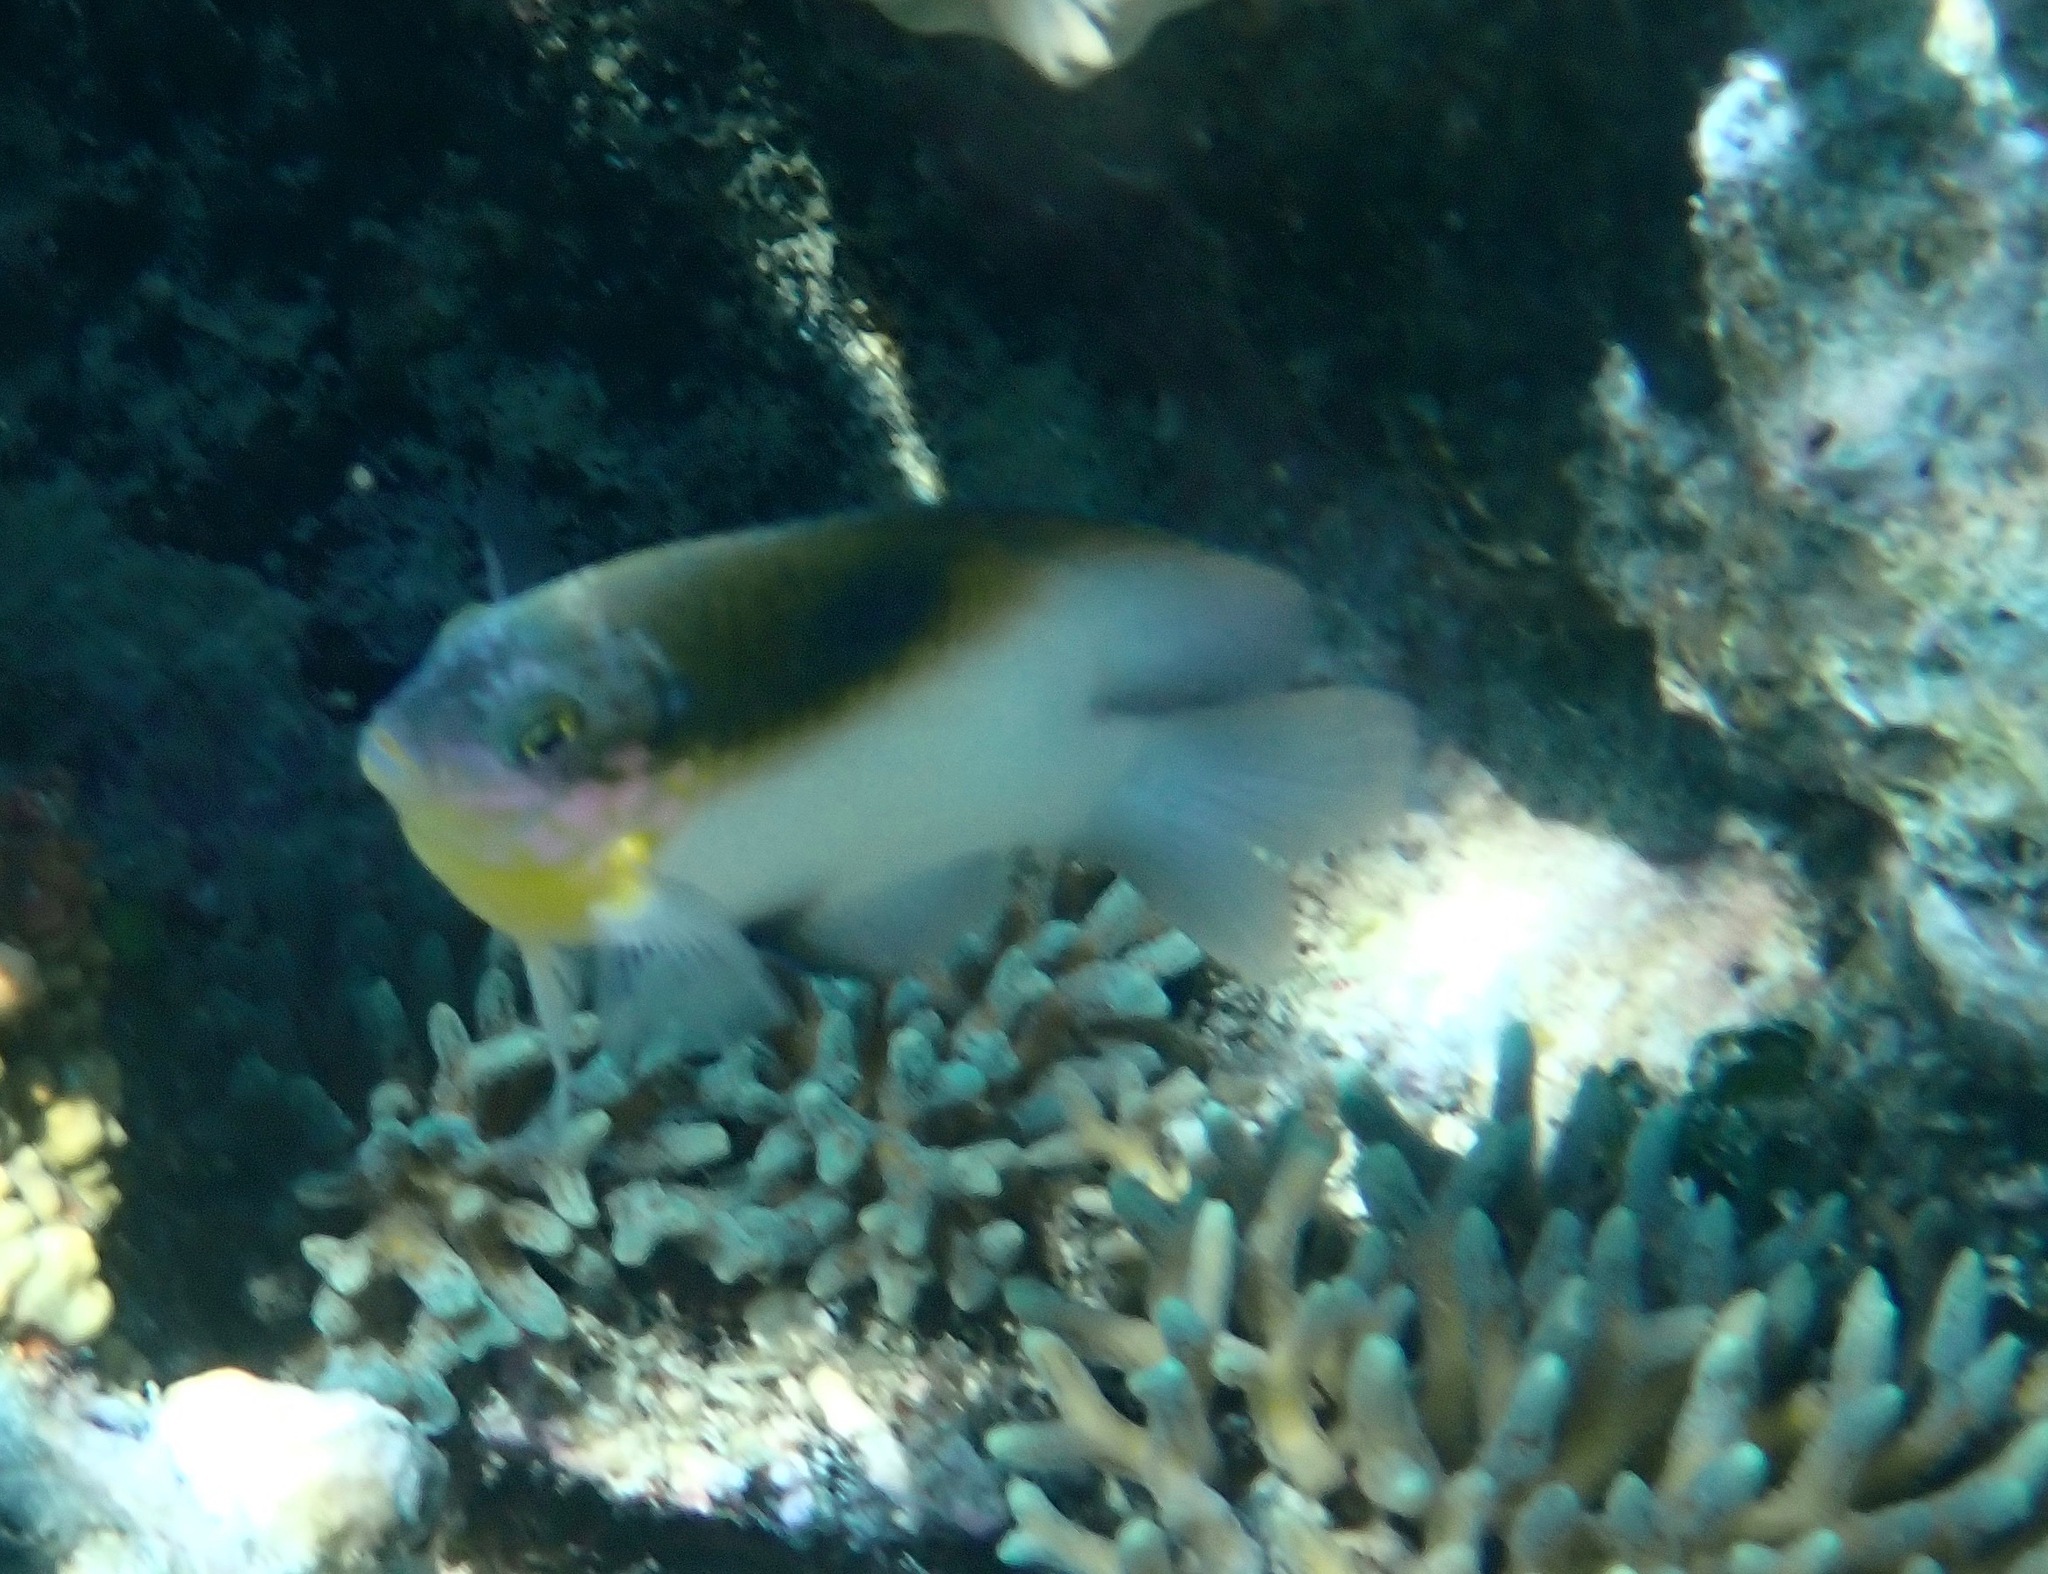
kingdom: Animalia
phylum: Chordata
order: Perciformes
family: Pomacentridae
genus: Dischistodus
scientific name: Dischistodus melanotus
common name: Black-vent damsel
